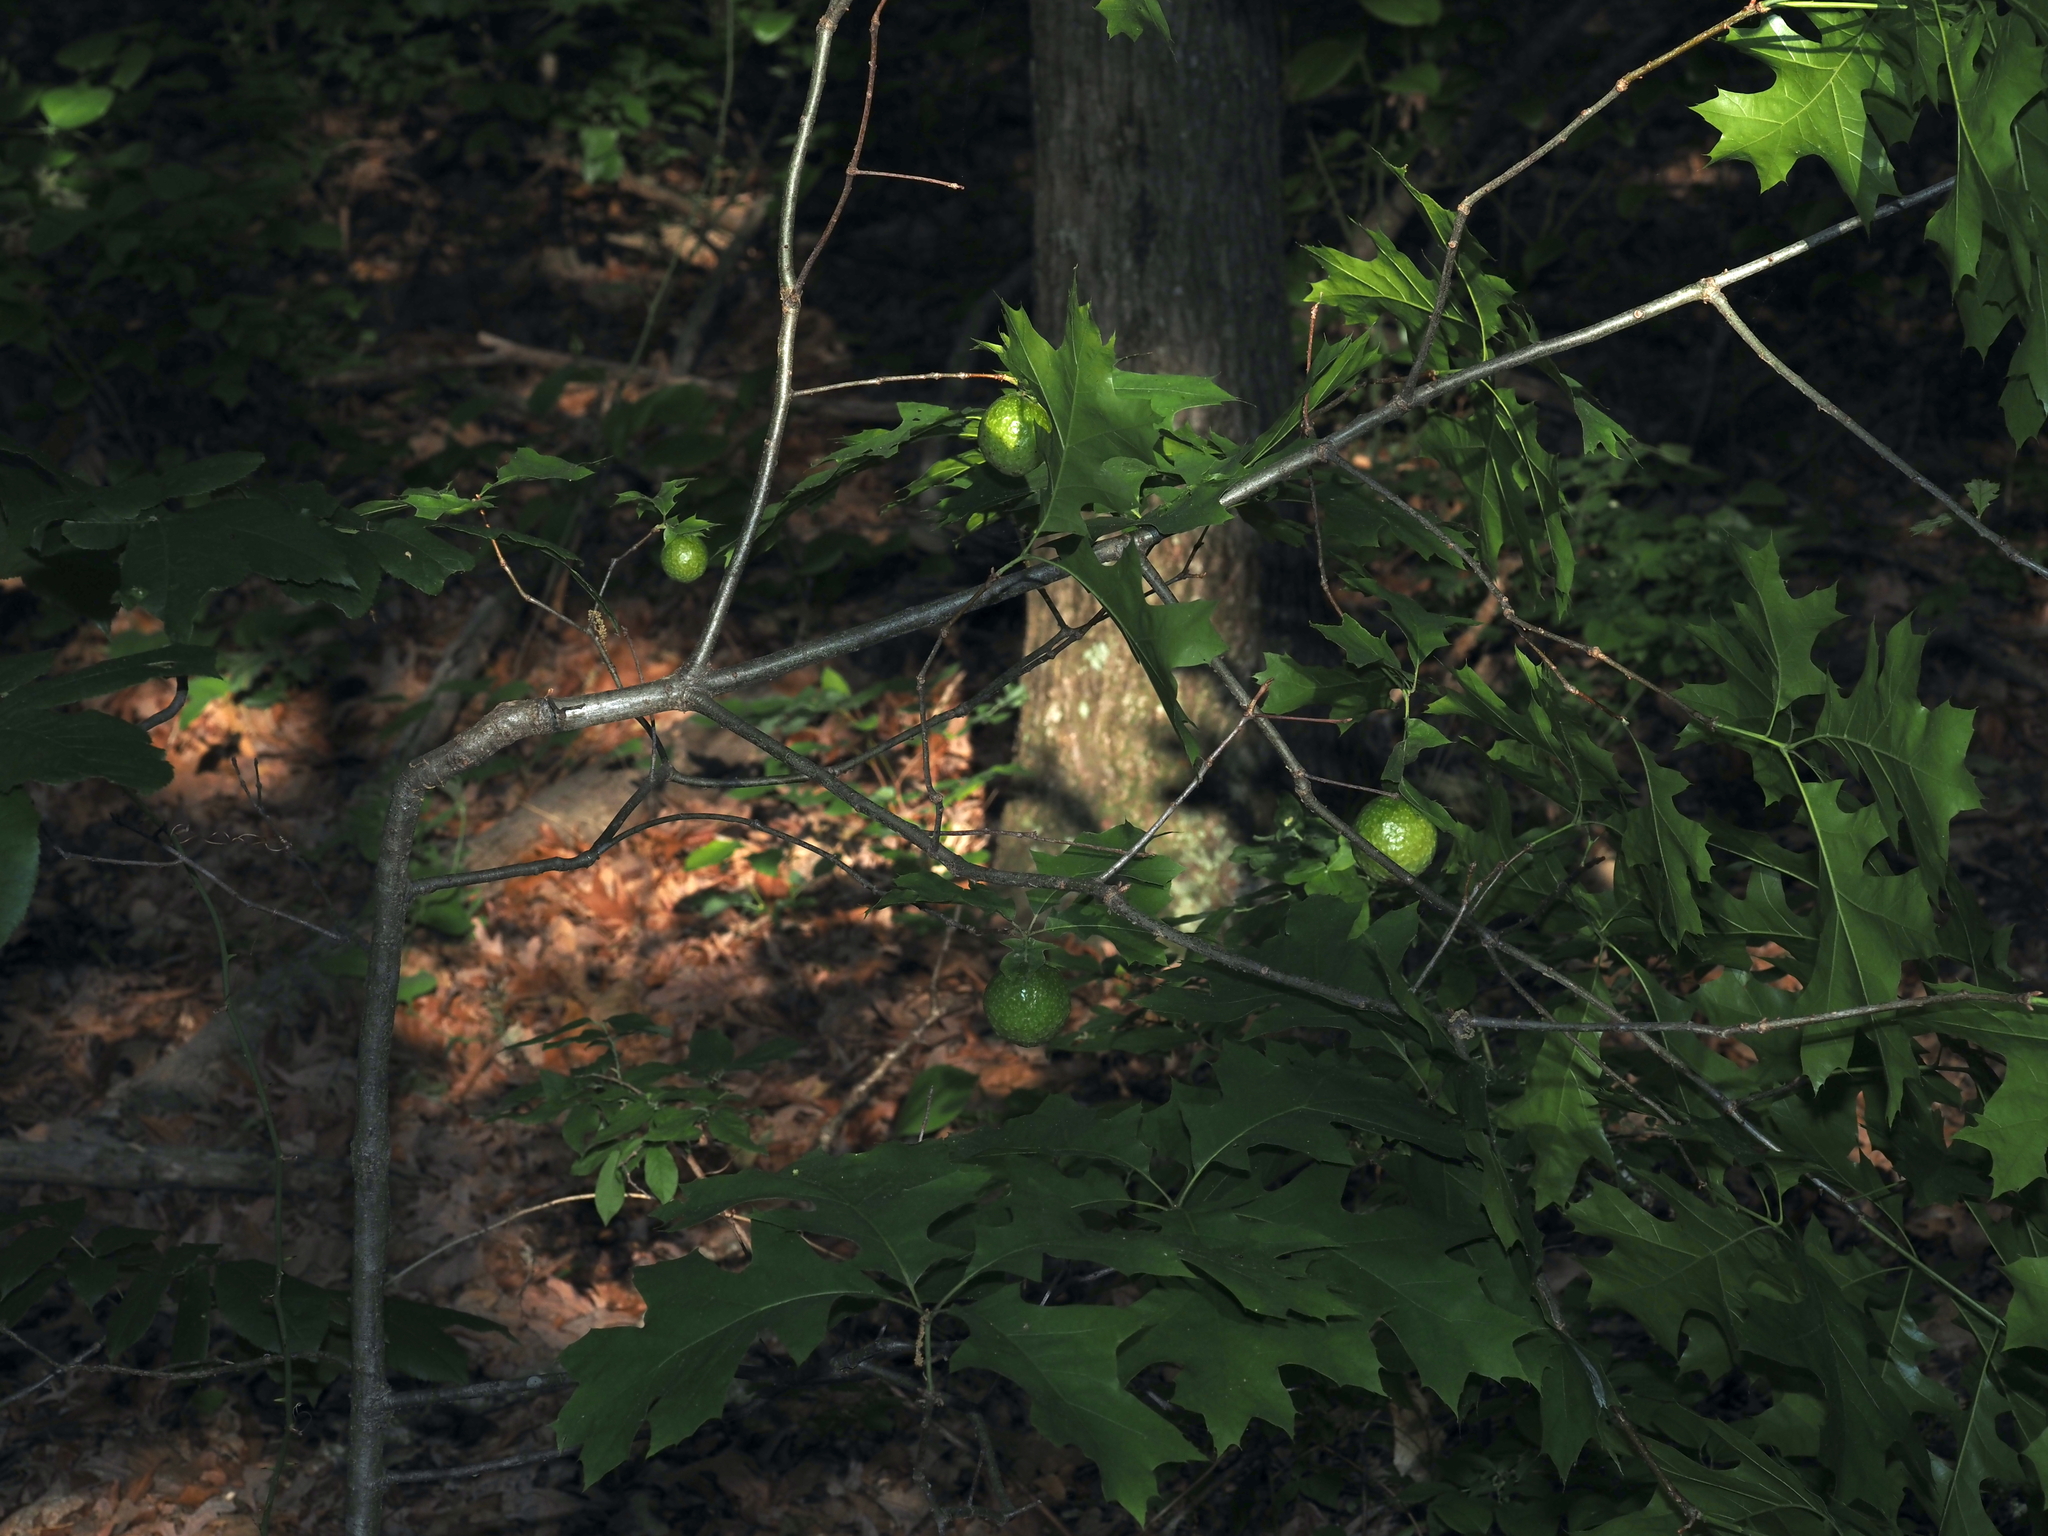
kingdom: Animalia
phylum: Arthropoda
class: Insecta
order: Hymenoptera
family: Cynipidae
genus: Amphibolips
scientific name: Amphibolips
